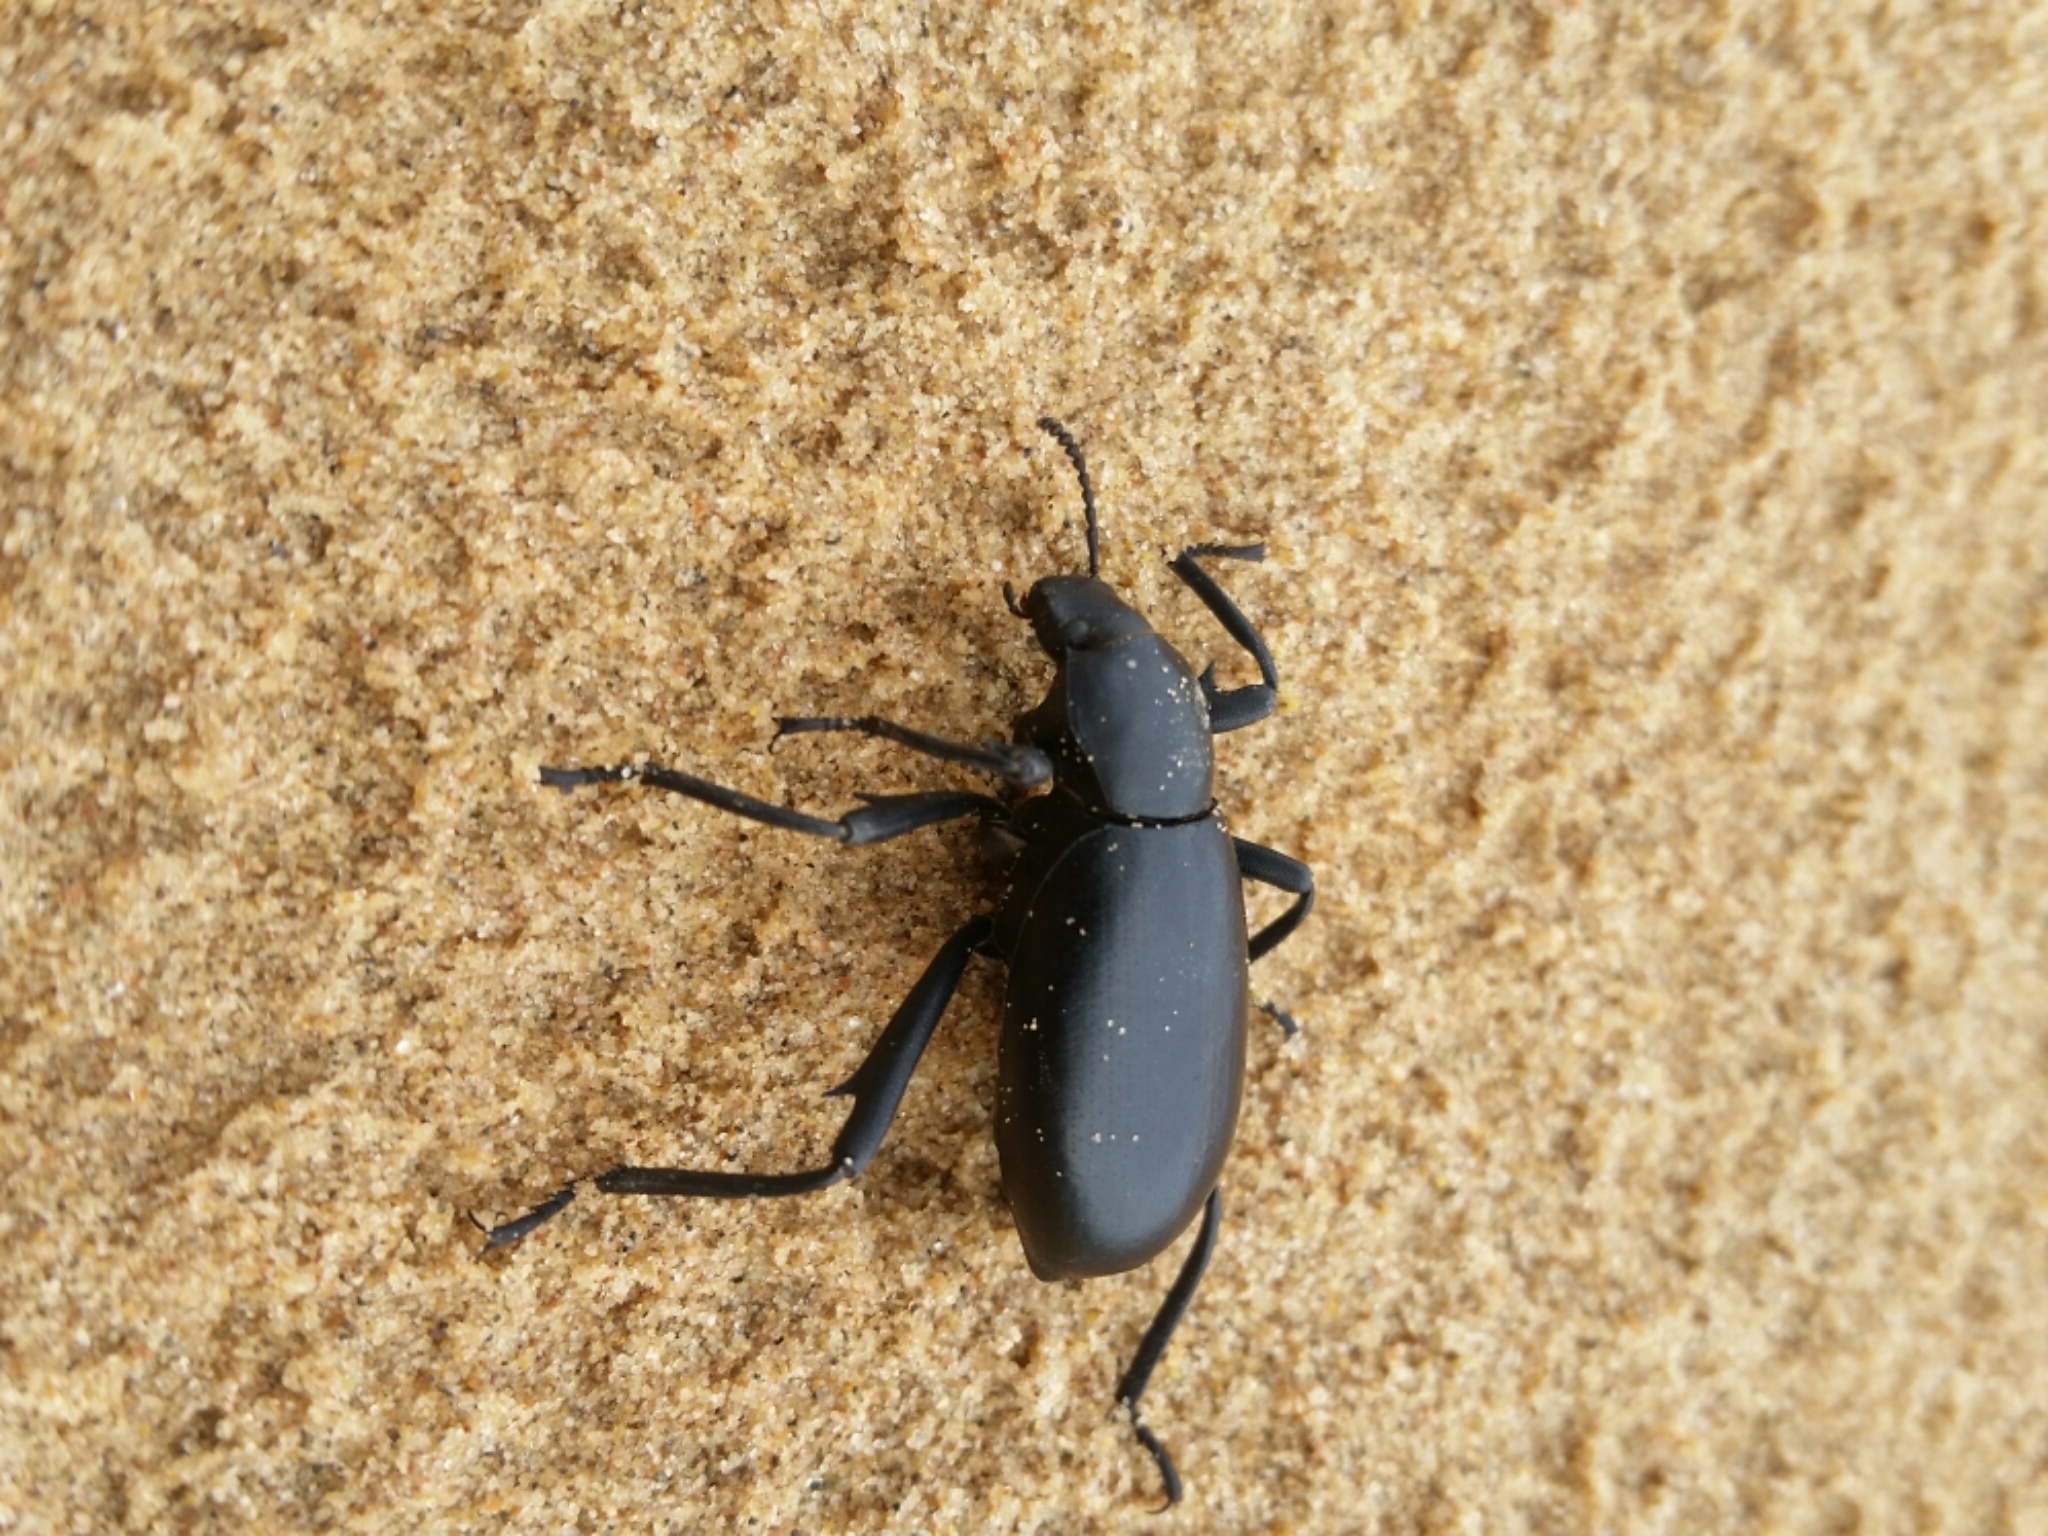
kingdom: Animalia
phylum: Arthropoda
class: Insecta
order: Coleoptera
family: Tenebrionidae
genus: Eleodes
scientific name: Eleodes armata
